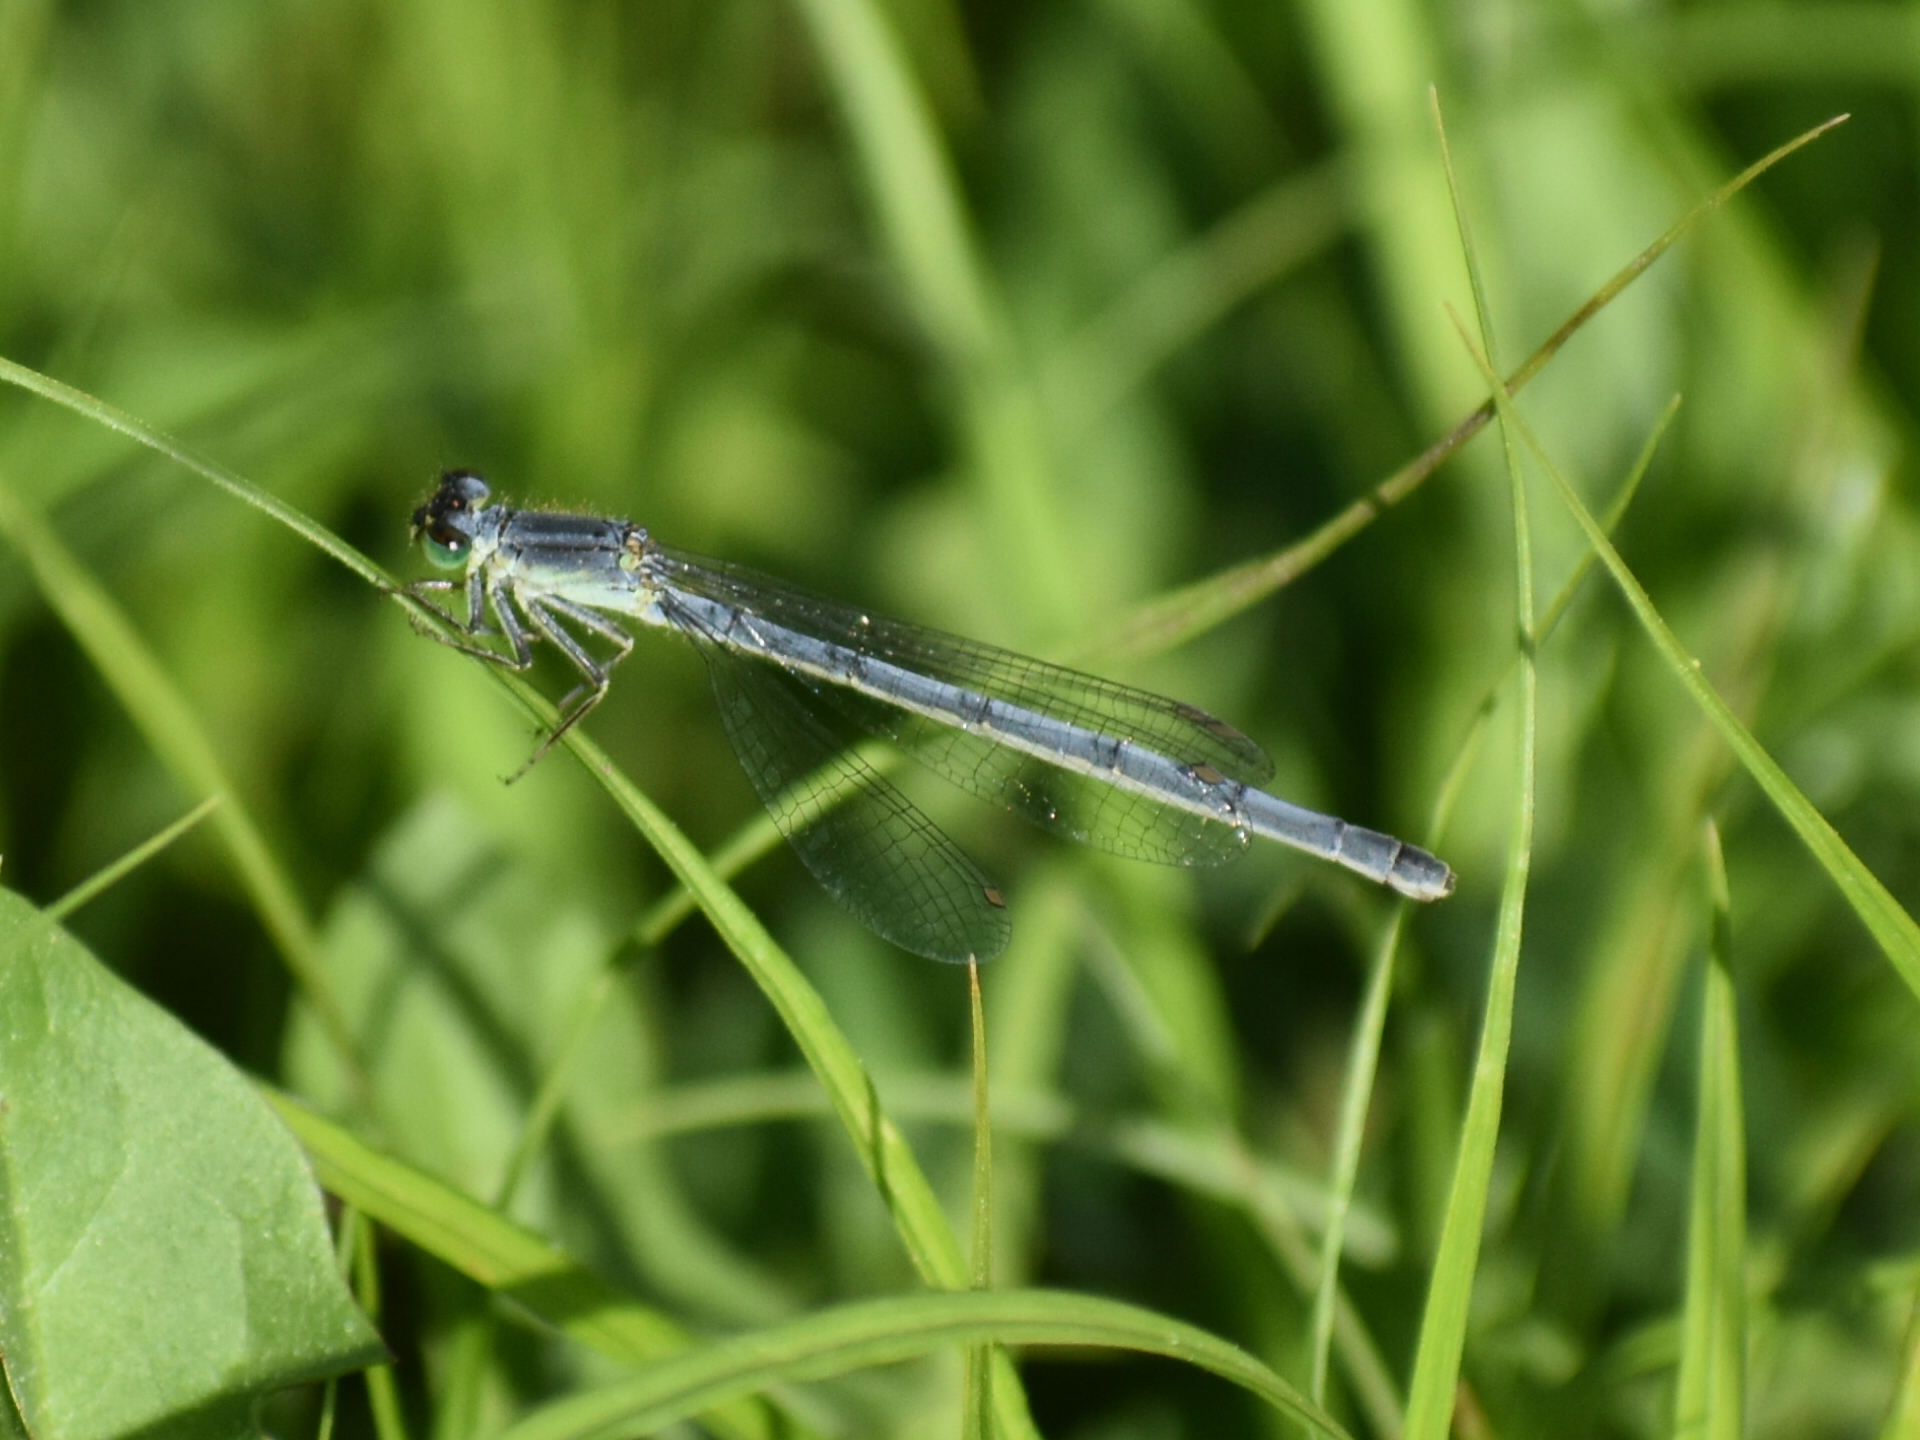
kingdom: Animalia
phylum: Arthropoda
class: Insecta
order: Odonata
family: Coenagrionidae
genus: Ischnura
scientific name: Ischnura verticalis
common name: Eastern forktail
